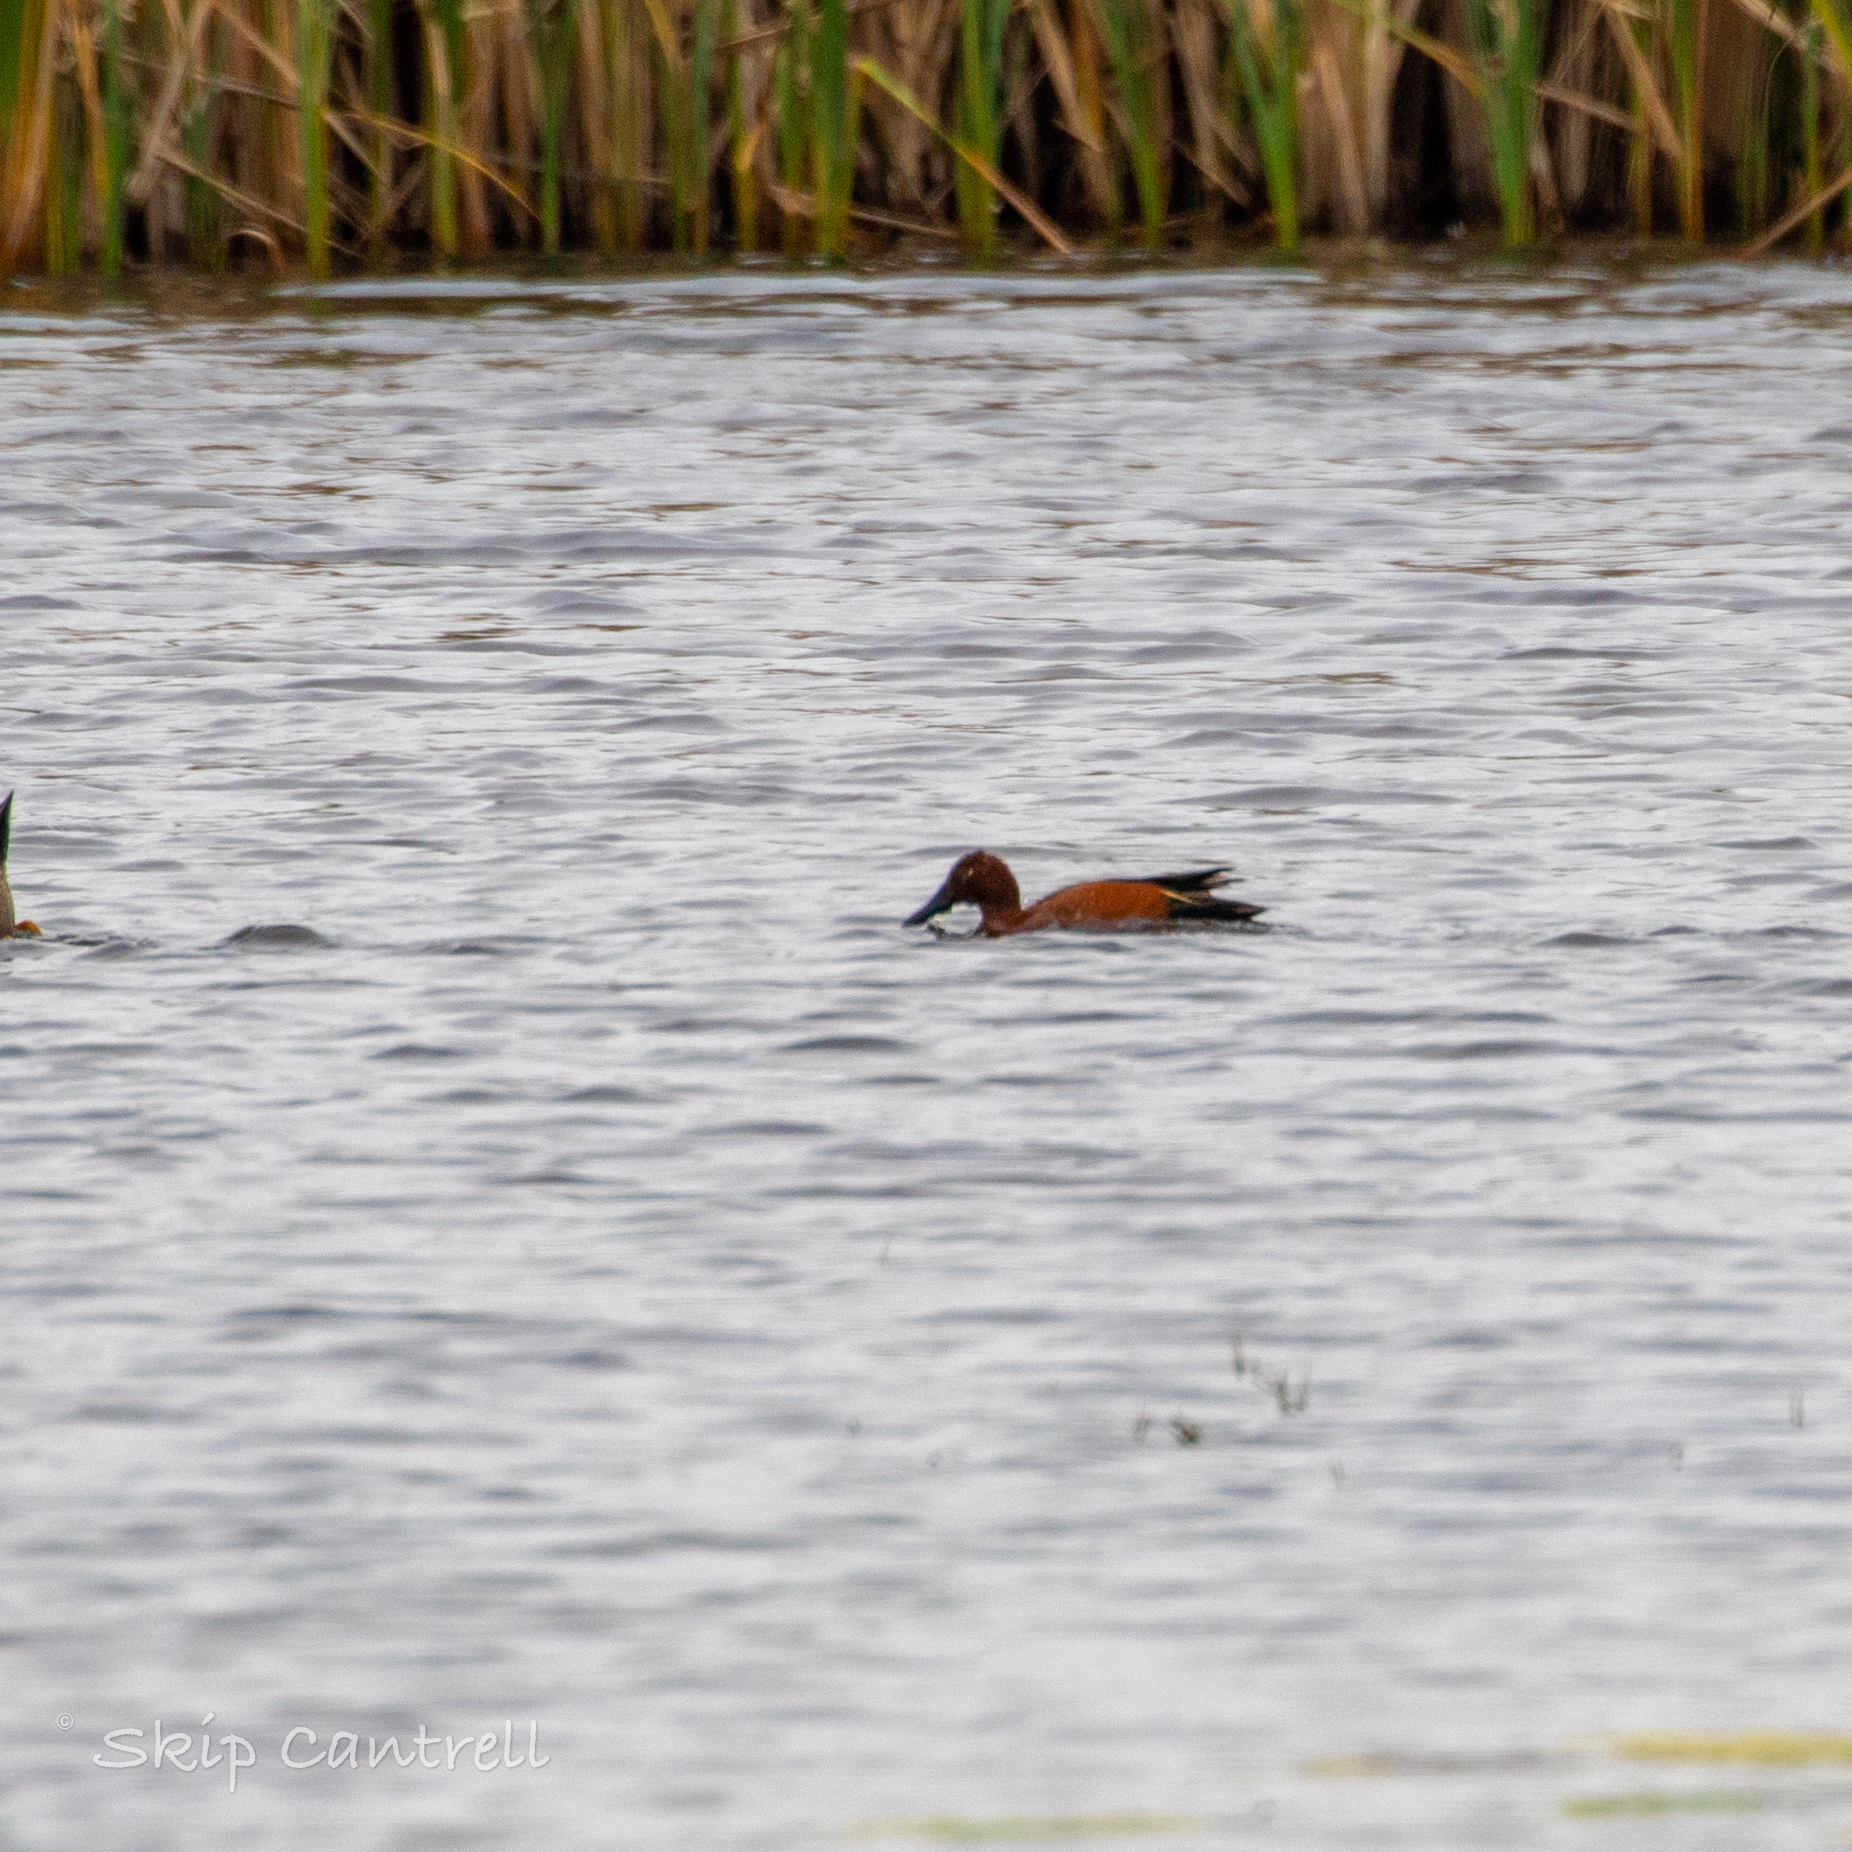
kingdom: Animalia
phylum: Chordata
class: Aves
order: Anseriformes
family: Anatidae
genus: Spatula
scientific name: Spatula cyanoptera
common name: Cinnamon teal
